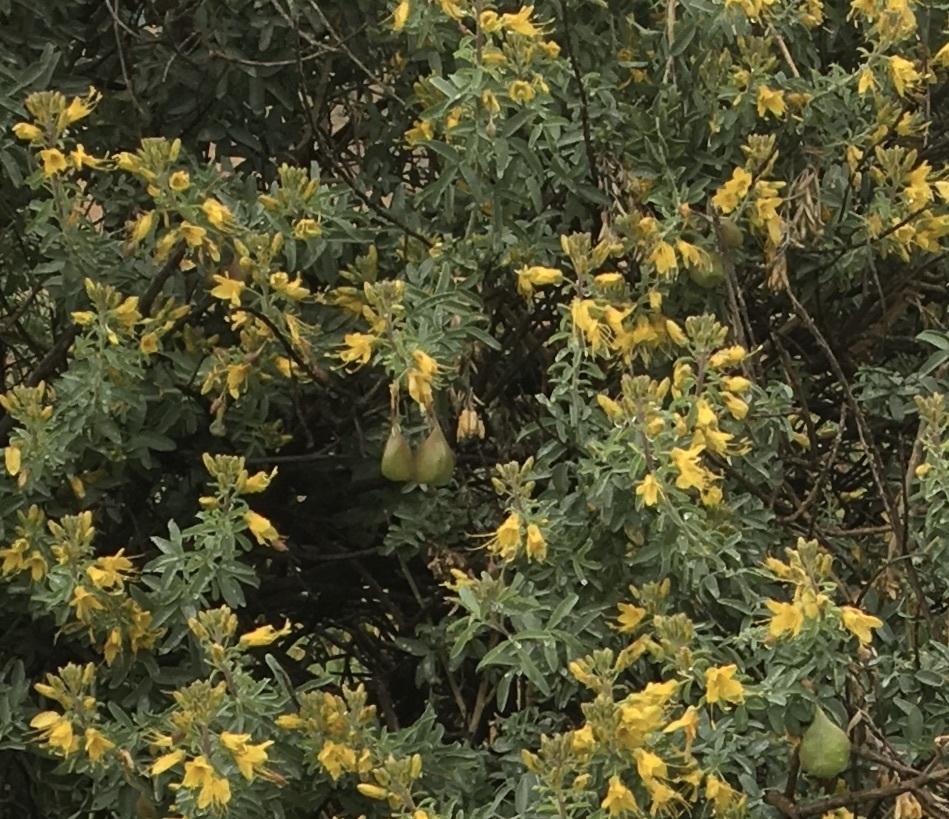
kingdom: Plantae
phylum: Tracheophyta
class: Magnoliopsida
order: Brassicales
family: Cleomaceae
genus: Cleomella
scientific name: Cleomella arborea
